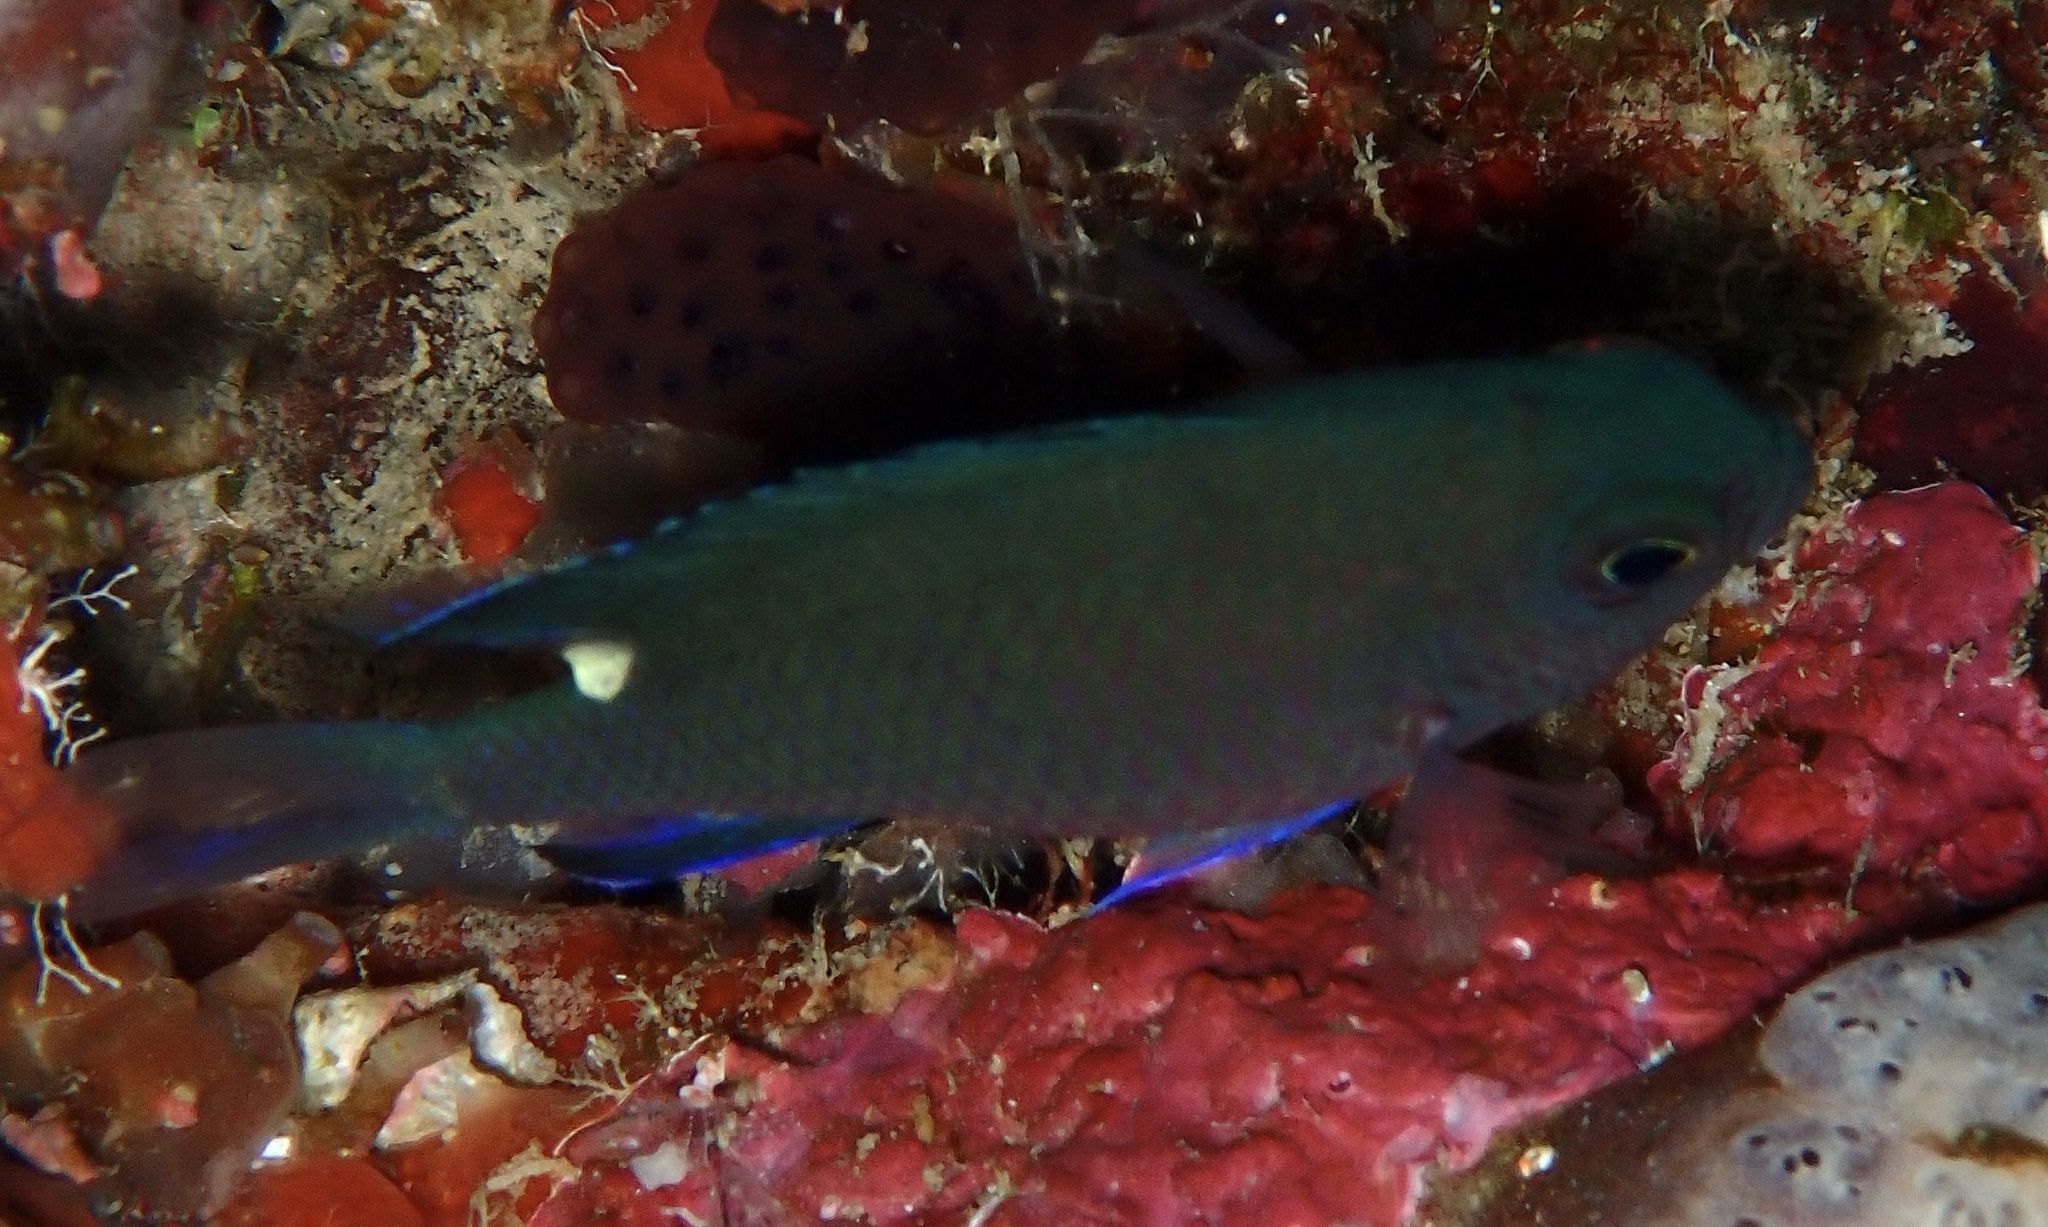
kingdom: Animalia
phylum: Chordata
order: Perciformes
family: Pomacentridae
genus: Chromis
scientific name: Chromis elerae
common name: Twin-spot chromis
